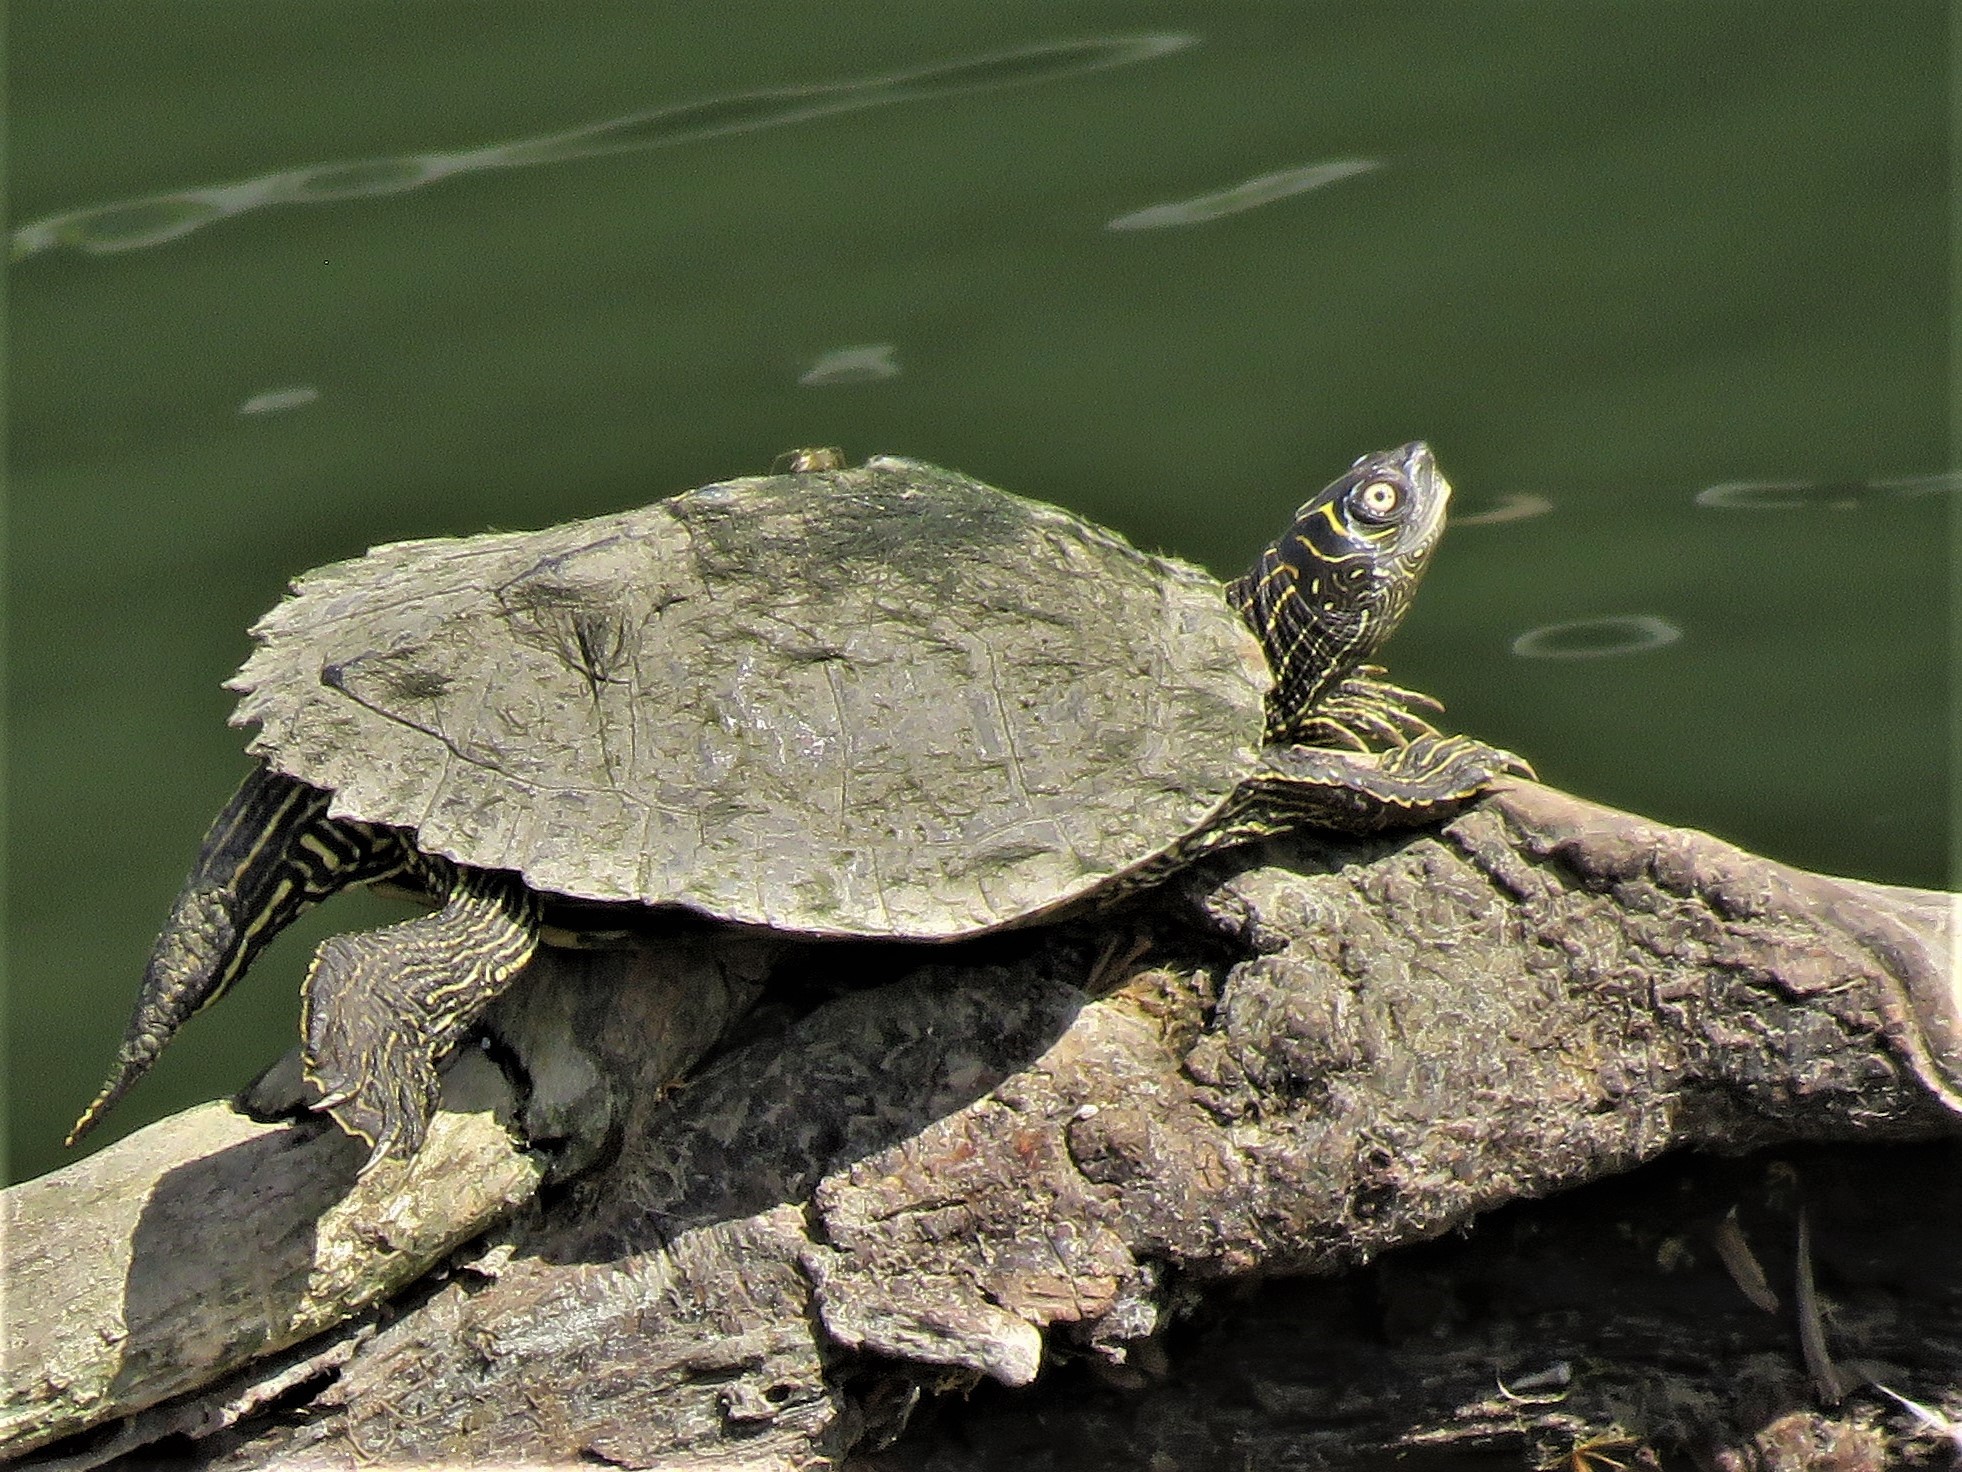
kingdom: Animalia
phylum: Chordata
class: Testudines
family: Emydidae
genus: Graptemys
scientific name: Graptemys pseudogeographica
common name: False map turtle
